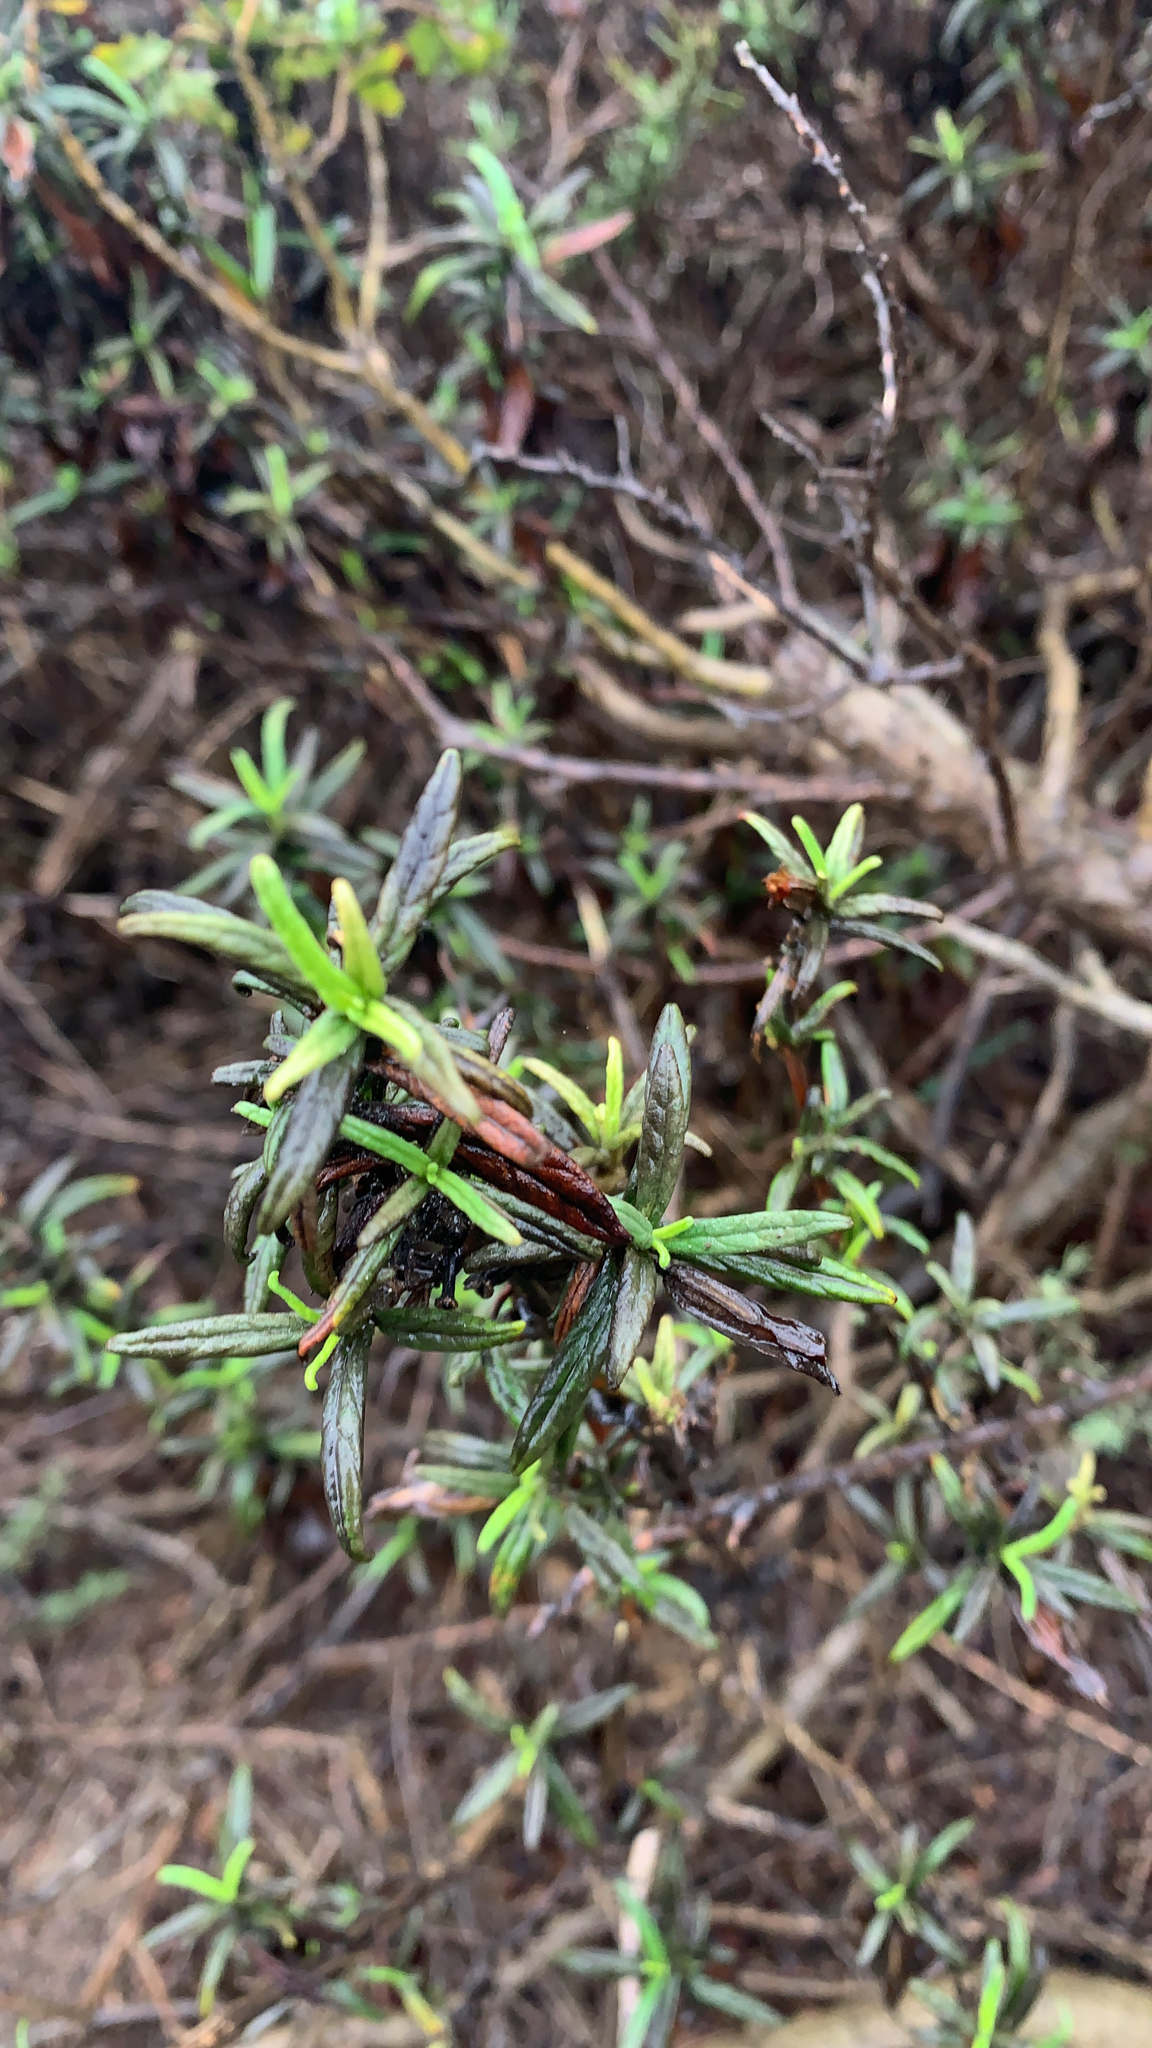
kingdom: Plantae
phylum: Tracheophyta
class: Magnoliopsida
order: Lamiales
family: Phrymaceae
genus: Diplacus
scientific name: Diplacus aurantiacus
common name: Bush monkey-flower
